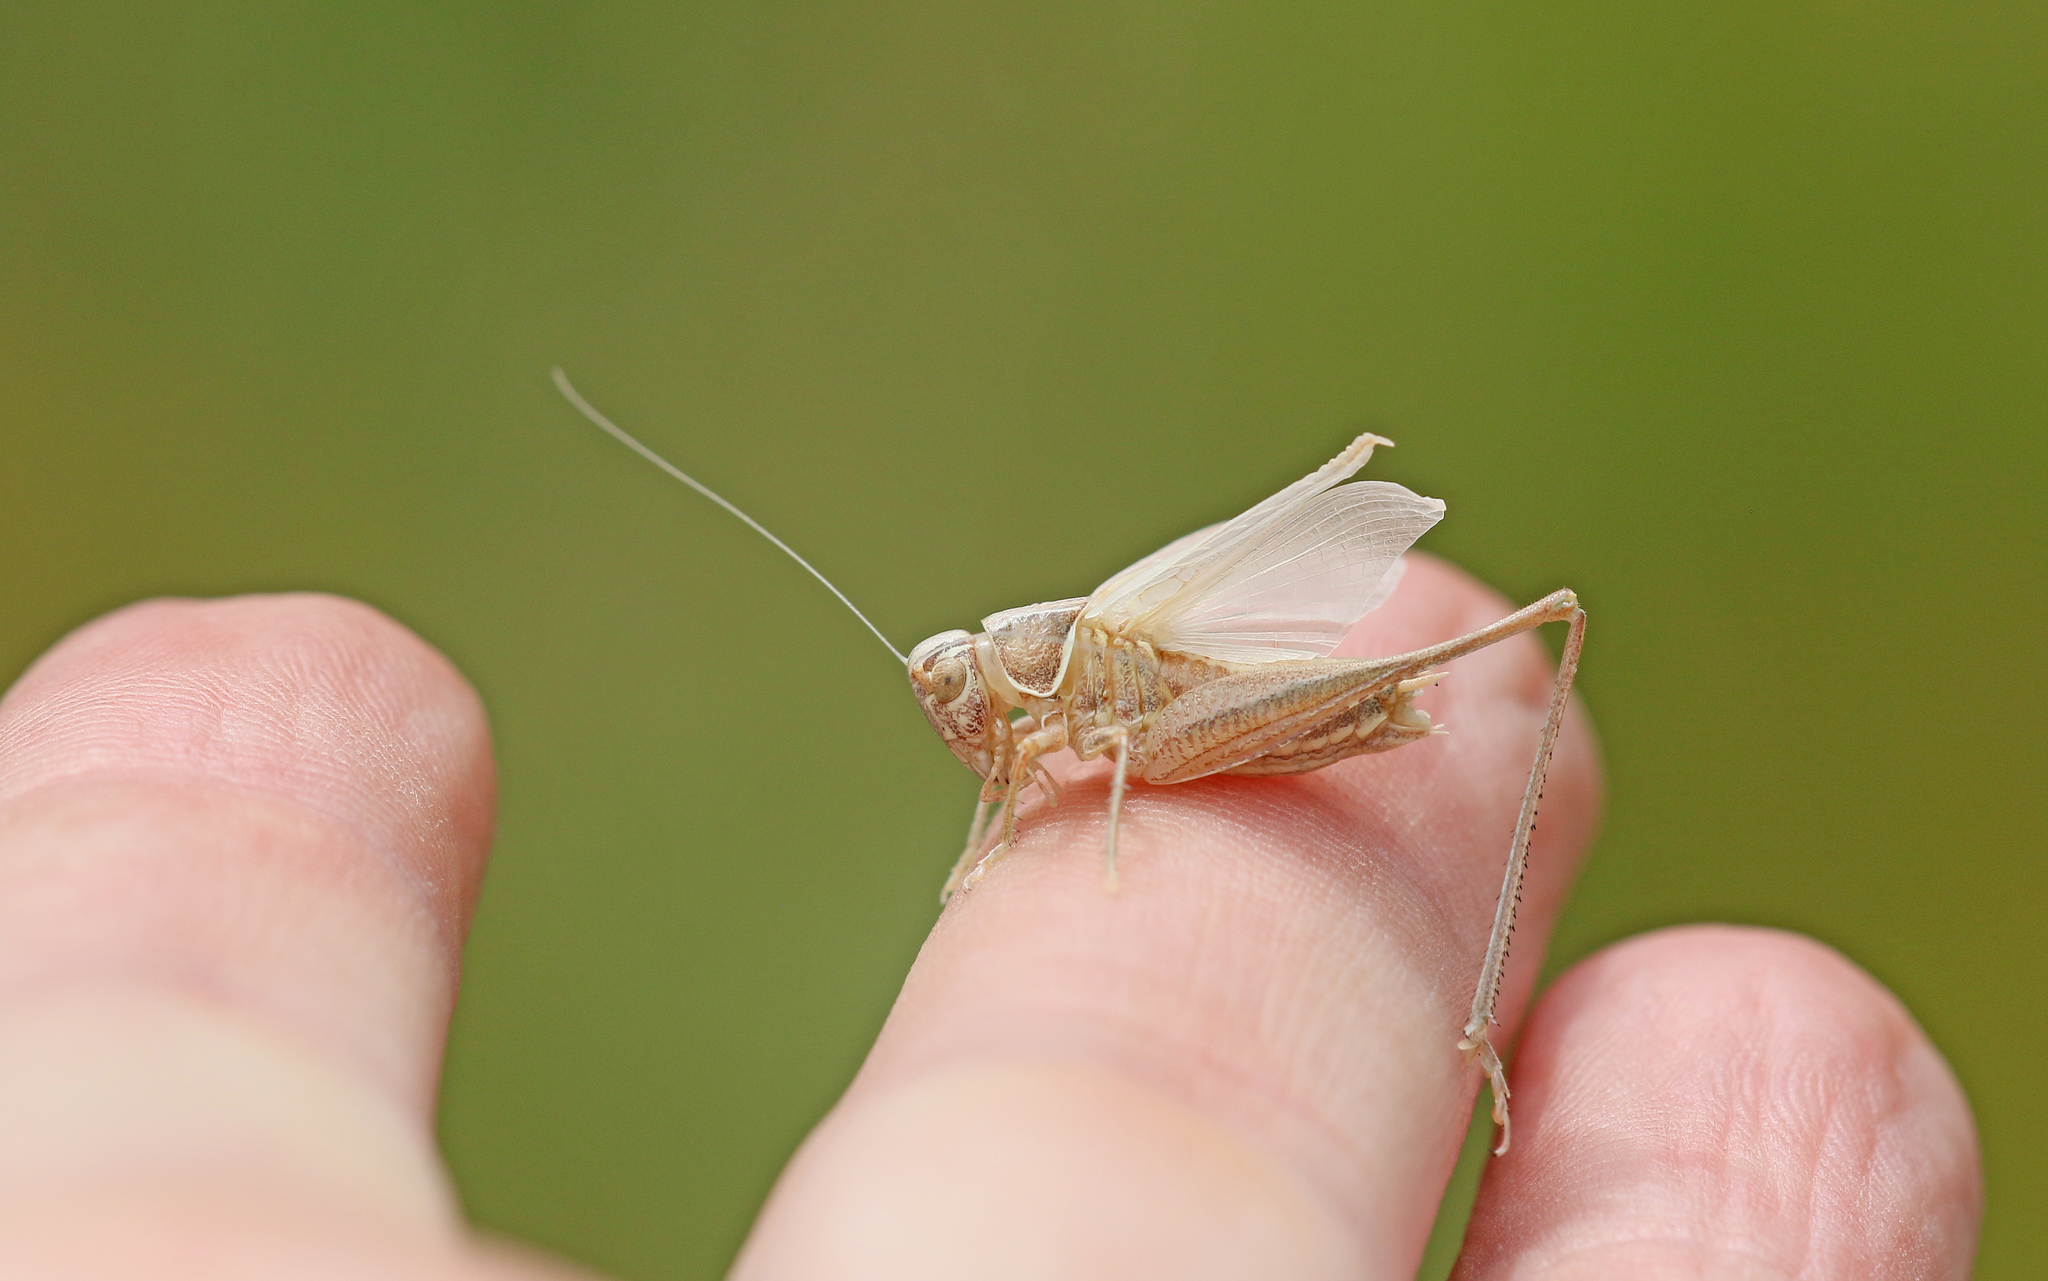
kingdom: Animalia
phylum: Arthropoda
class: Insecta
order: Orthoptera
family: Tettigoniidae
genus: Tessellana
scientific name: Tessellana tessellata
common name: Grasshopper
